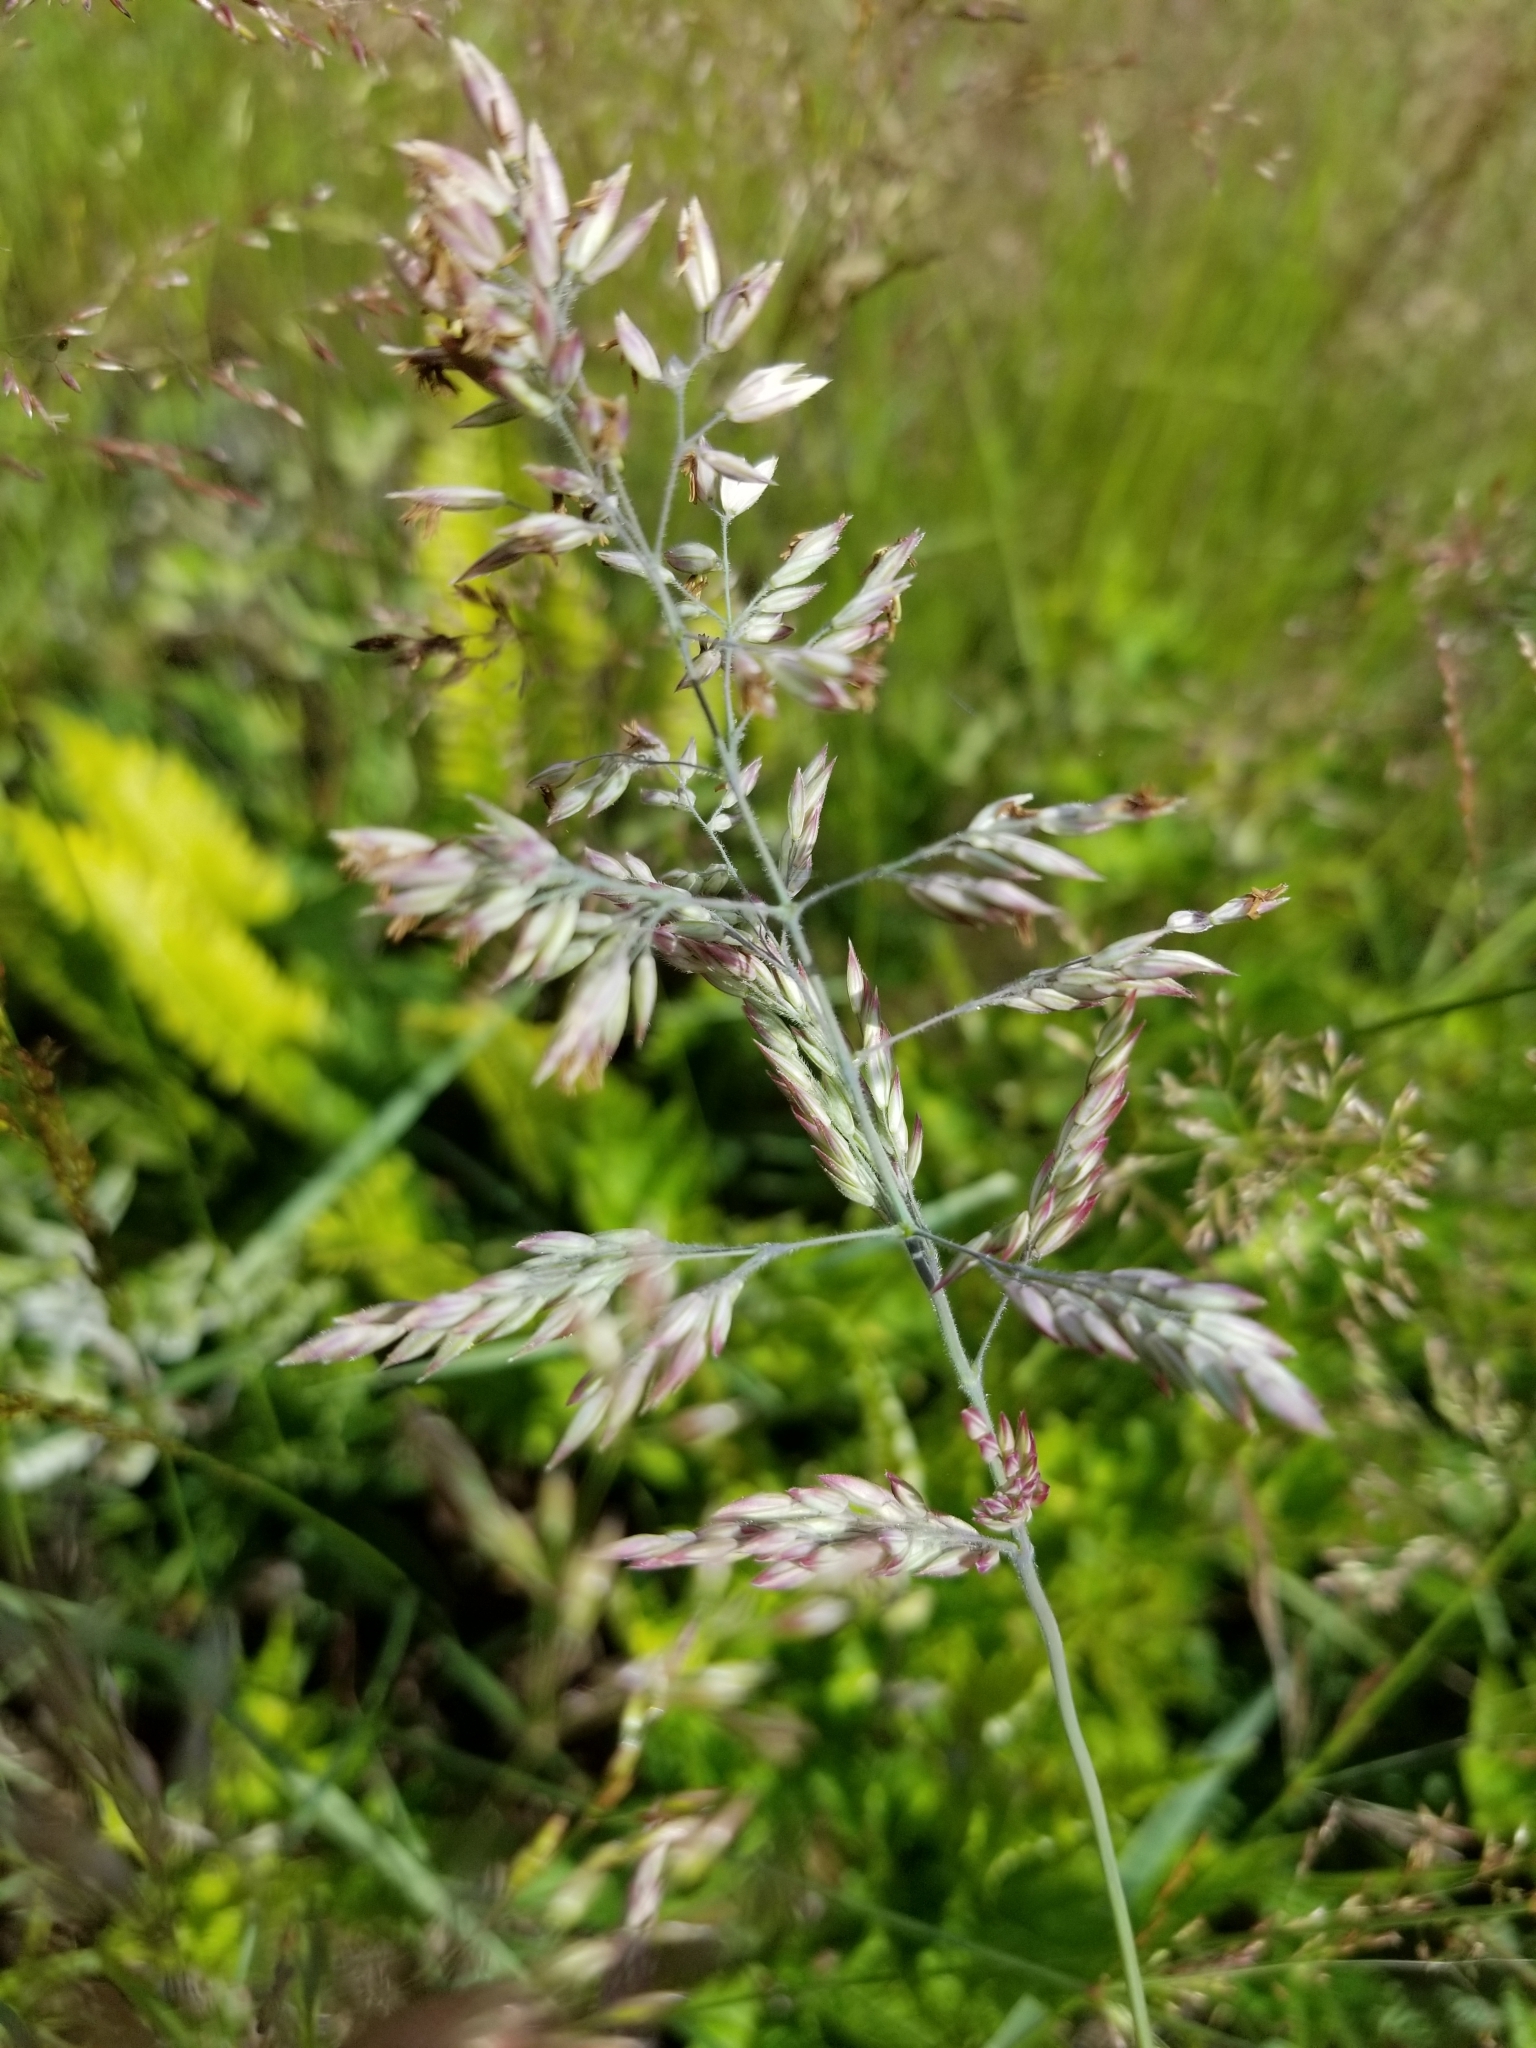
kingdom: Plantae
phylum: Tracheophyta
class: Liliopsida
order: Poales
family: Poaceae
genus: Holcus
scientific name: Holcus lanatus
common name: Yorkshire-fog
